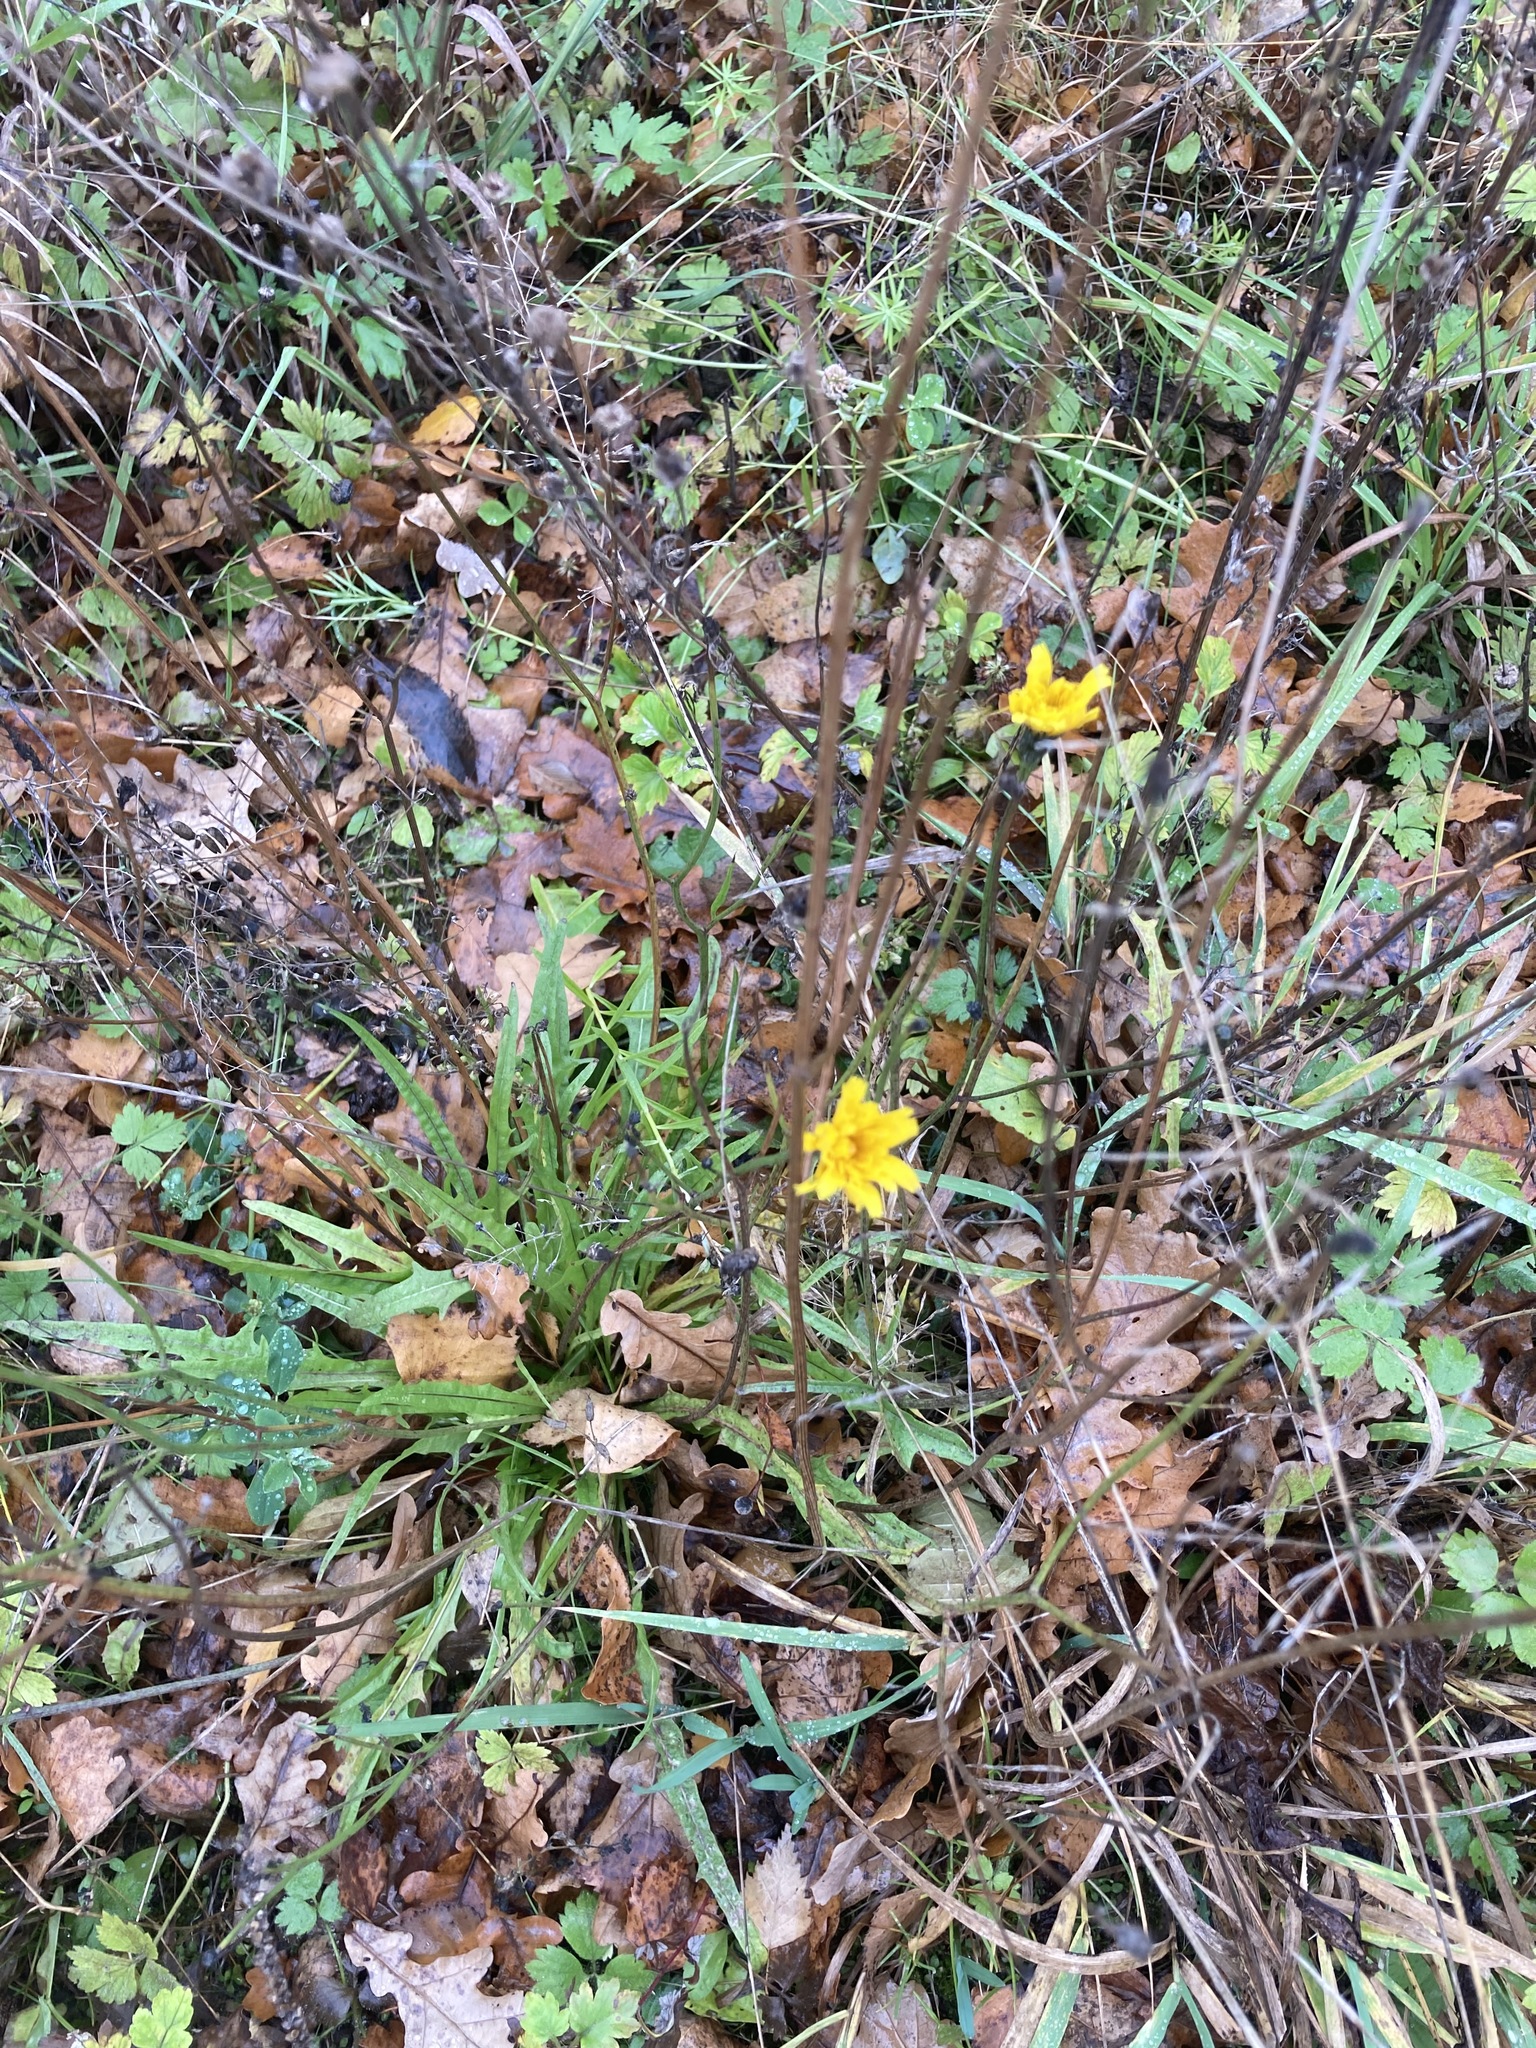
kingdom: Plantae
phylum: Tracheophyta
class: Magnoliopsida
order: Asterales
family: Asteraceae
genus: Scorzoneroides
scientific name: Scorzoneroides autumnalis
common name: Autumn hawkbit
